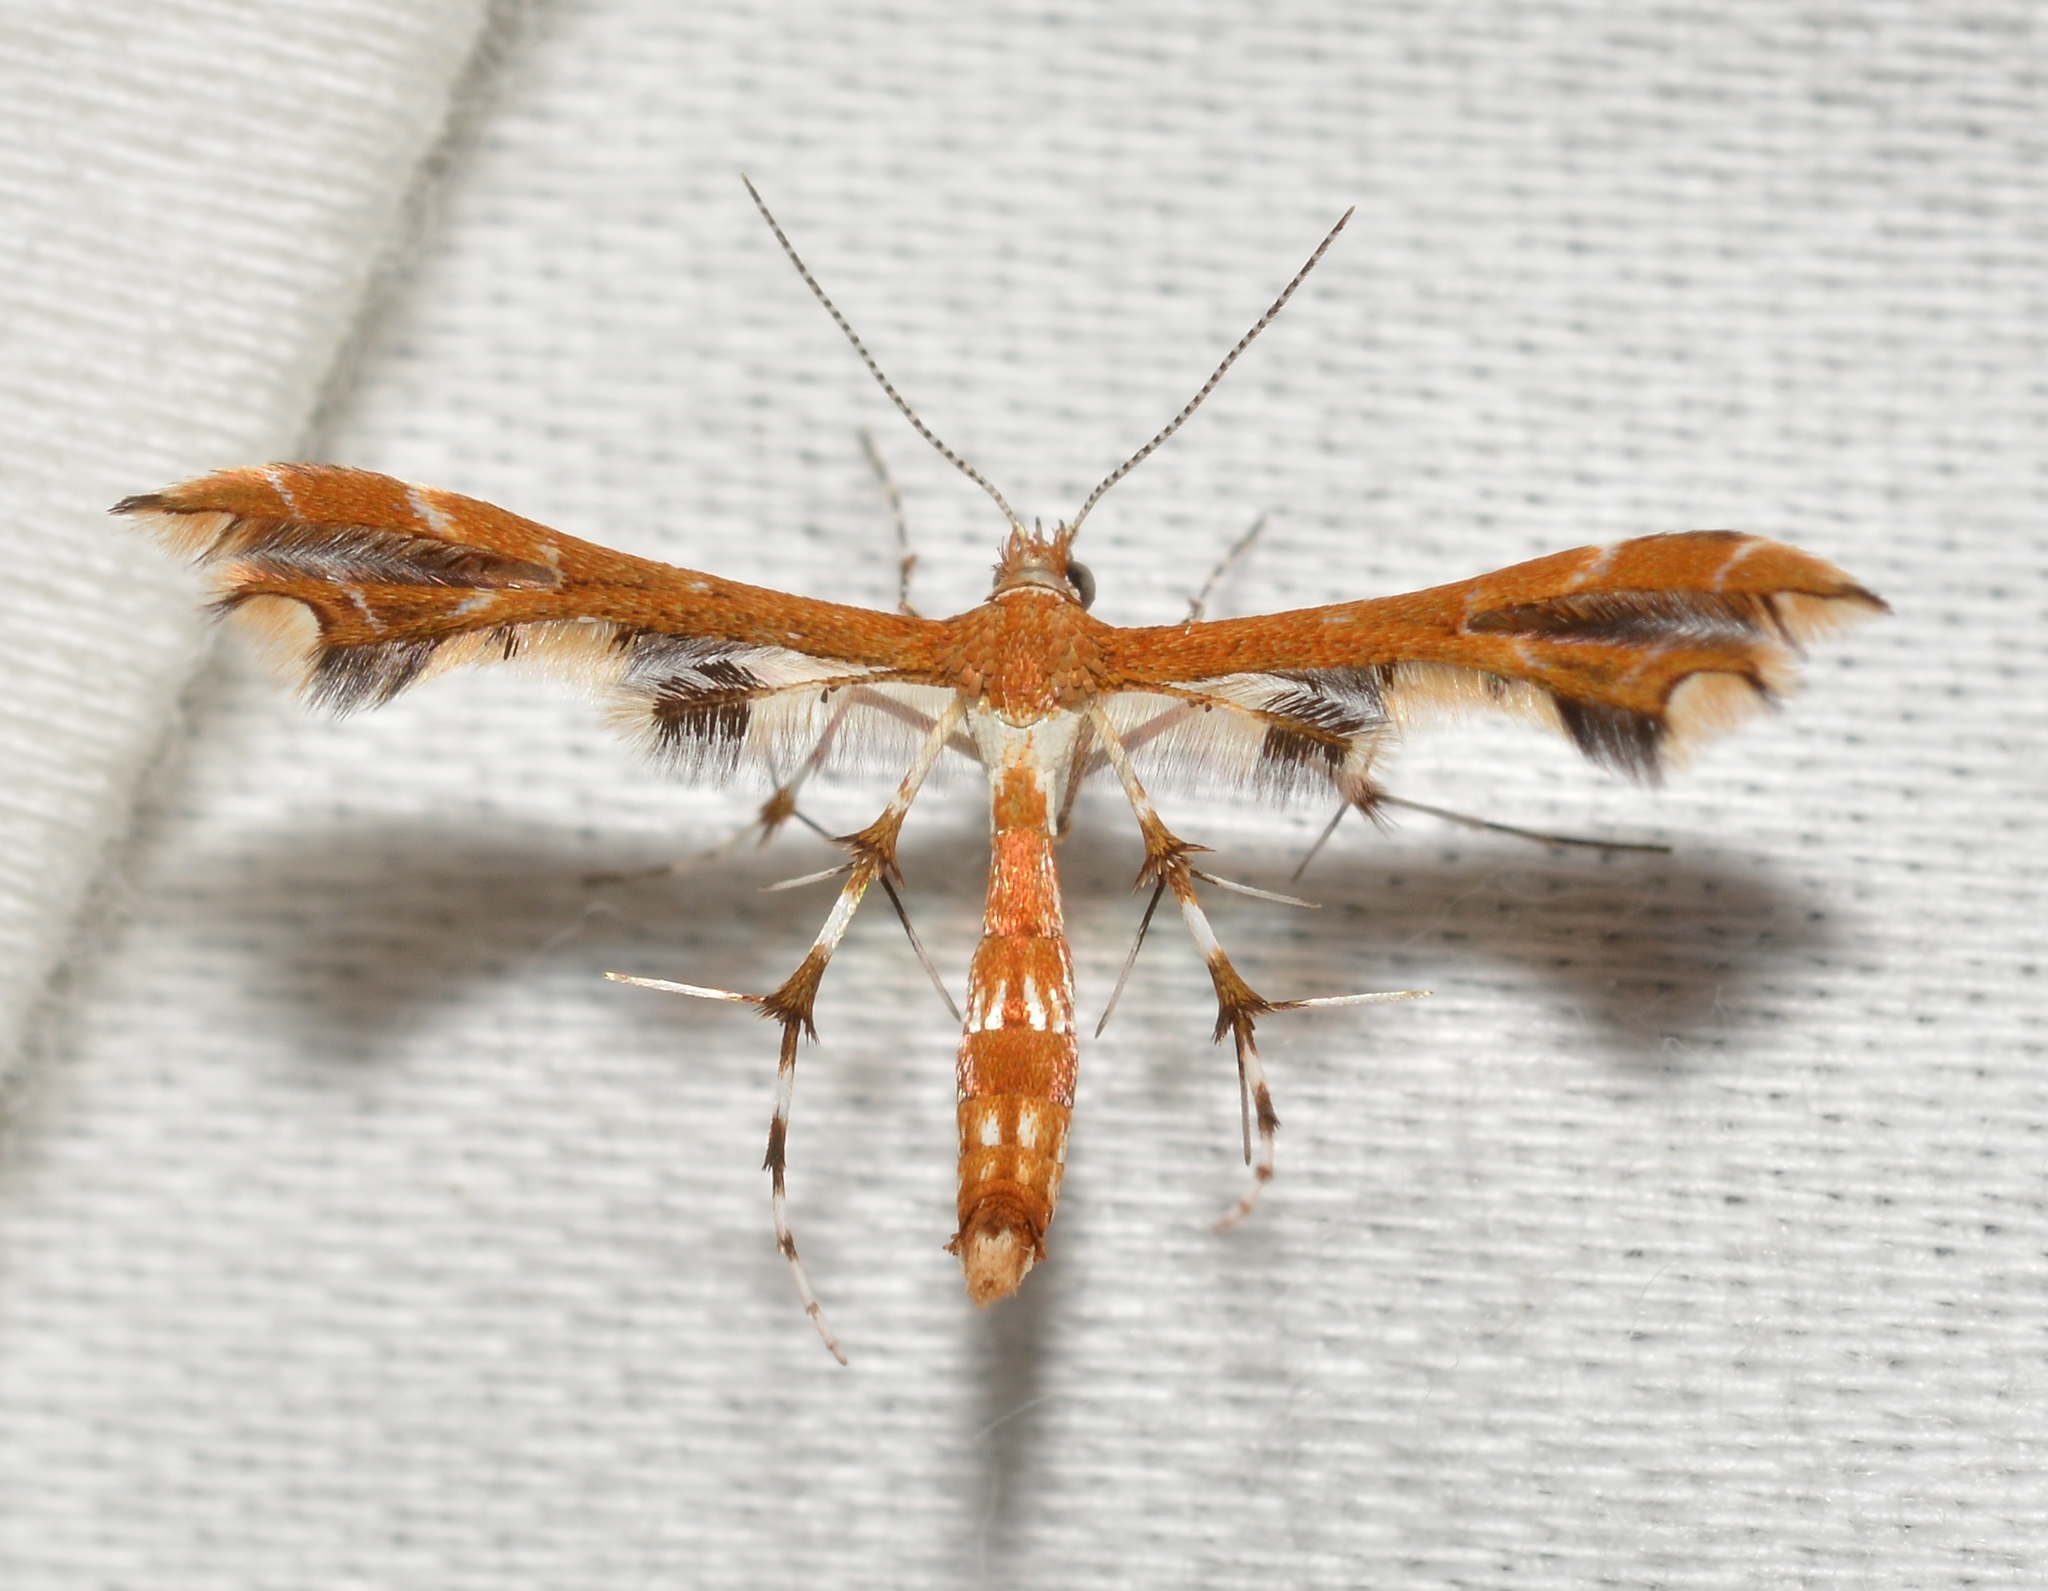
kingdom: Animalia
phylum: Arthropoda
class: Insecta
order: Lepidoptera
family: Pterophoridae
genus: Geina
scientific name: Geina buscki
